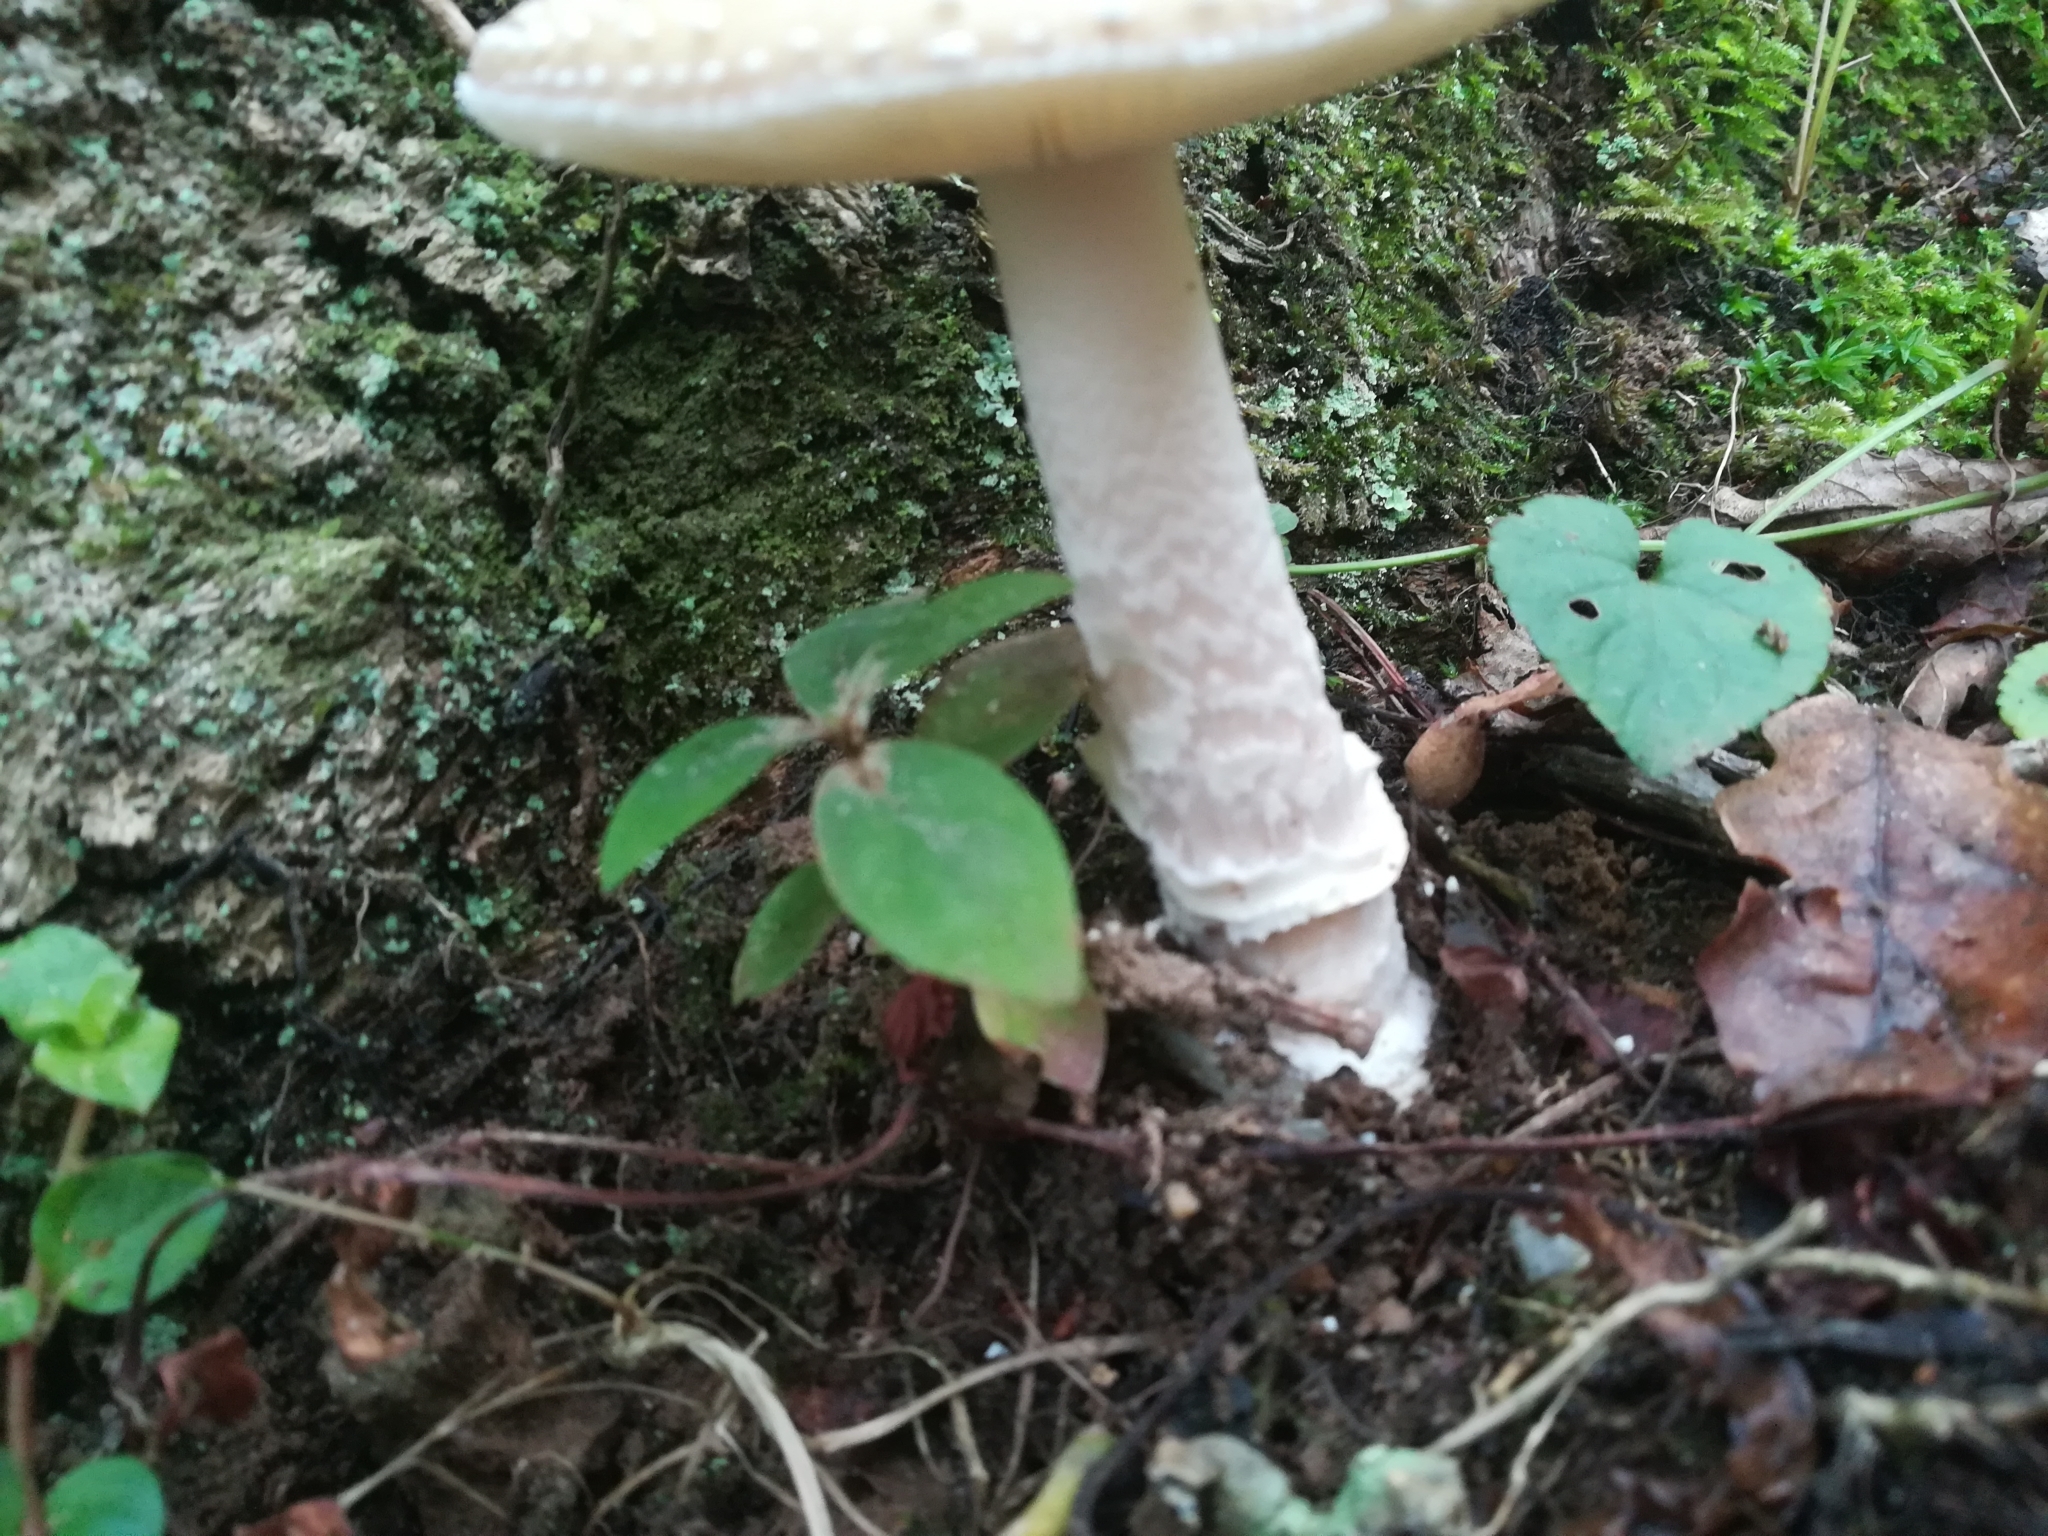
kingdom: Fungi
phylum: Basidiomycota
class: Agaricomycetes
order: Agaricales
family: Amanitaceae
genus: Amanita
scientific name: Amanita pantherina
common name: Panthercap
